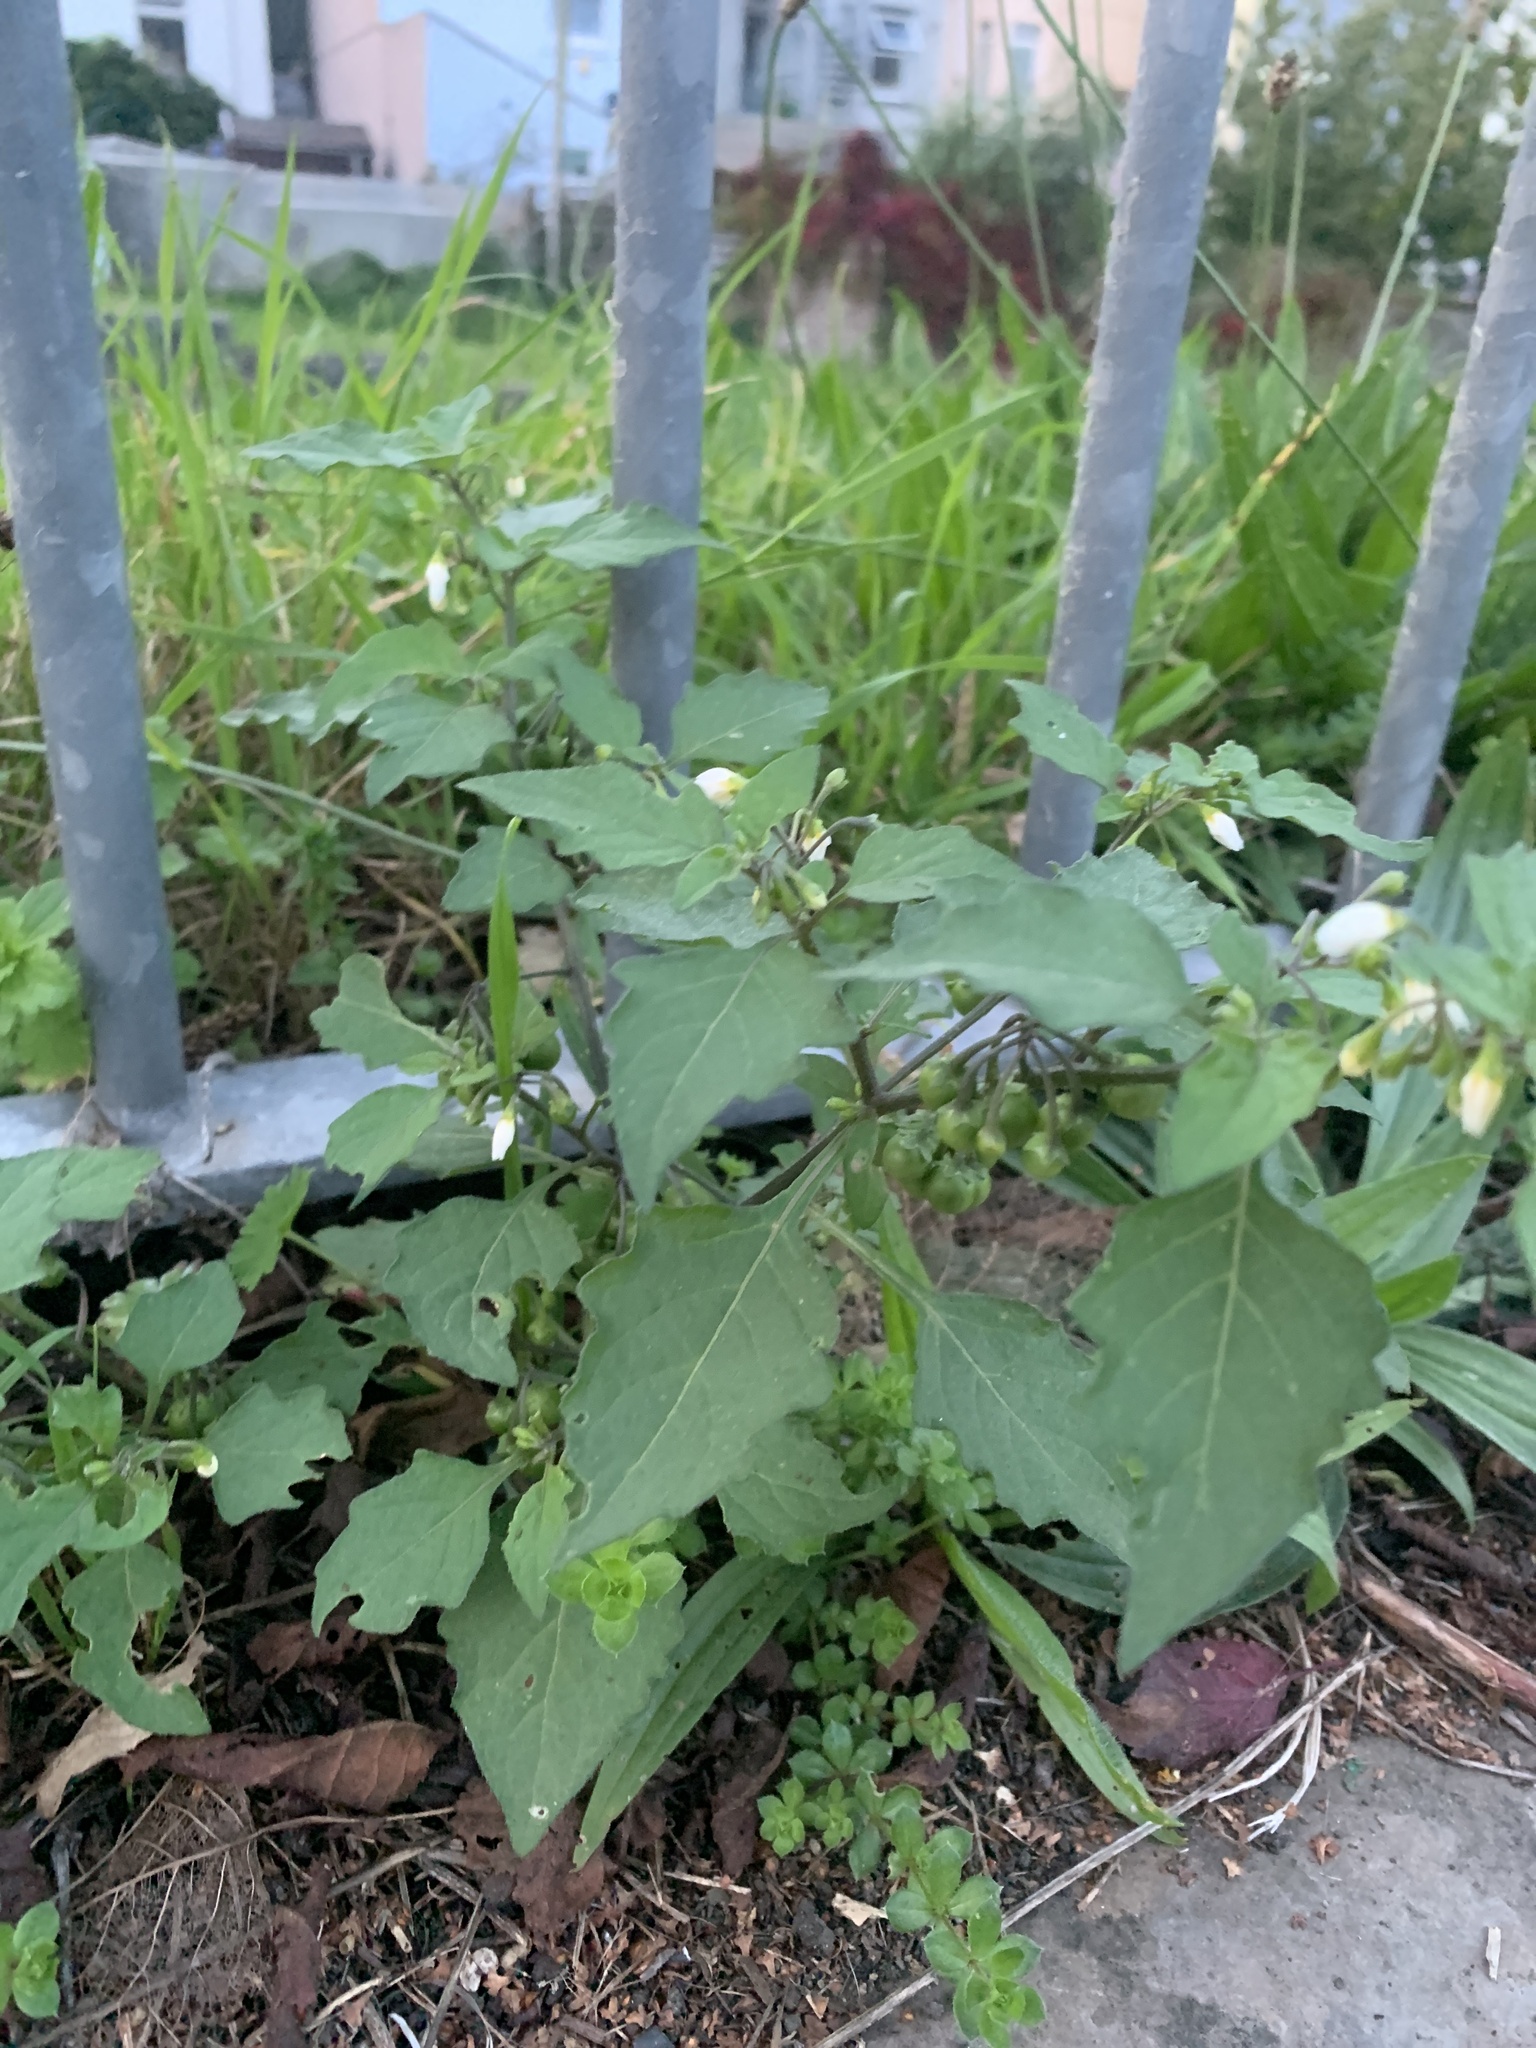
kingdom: Plantae
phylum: Tracheophyta
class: Magnoliopsida
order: Solanales
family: Solanaceae
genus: Solanum
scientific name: Solanum nigrum
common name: Black nightshade
